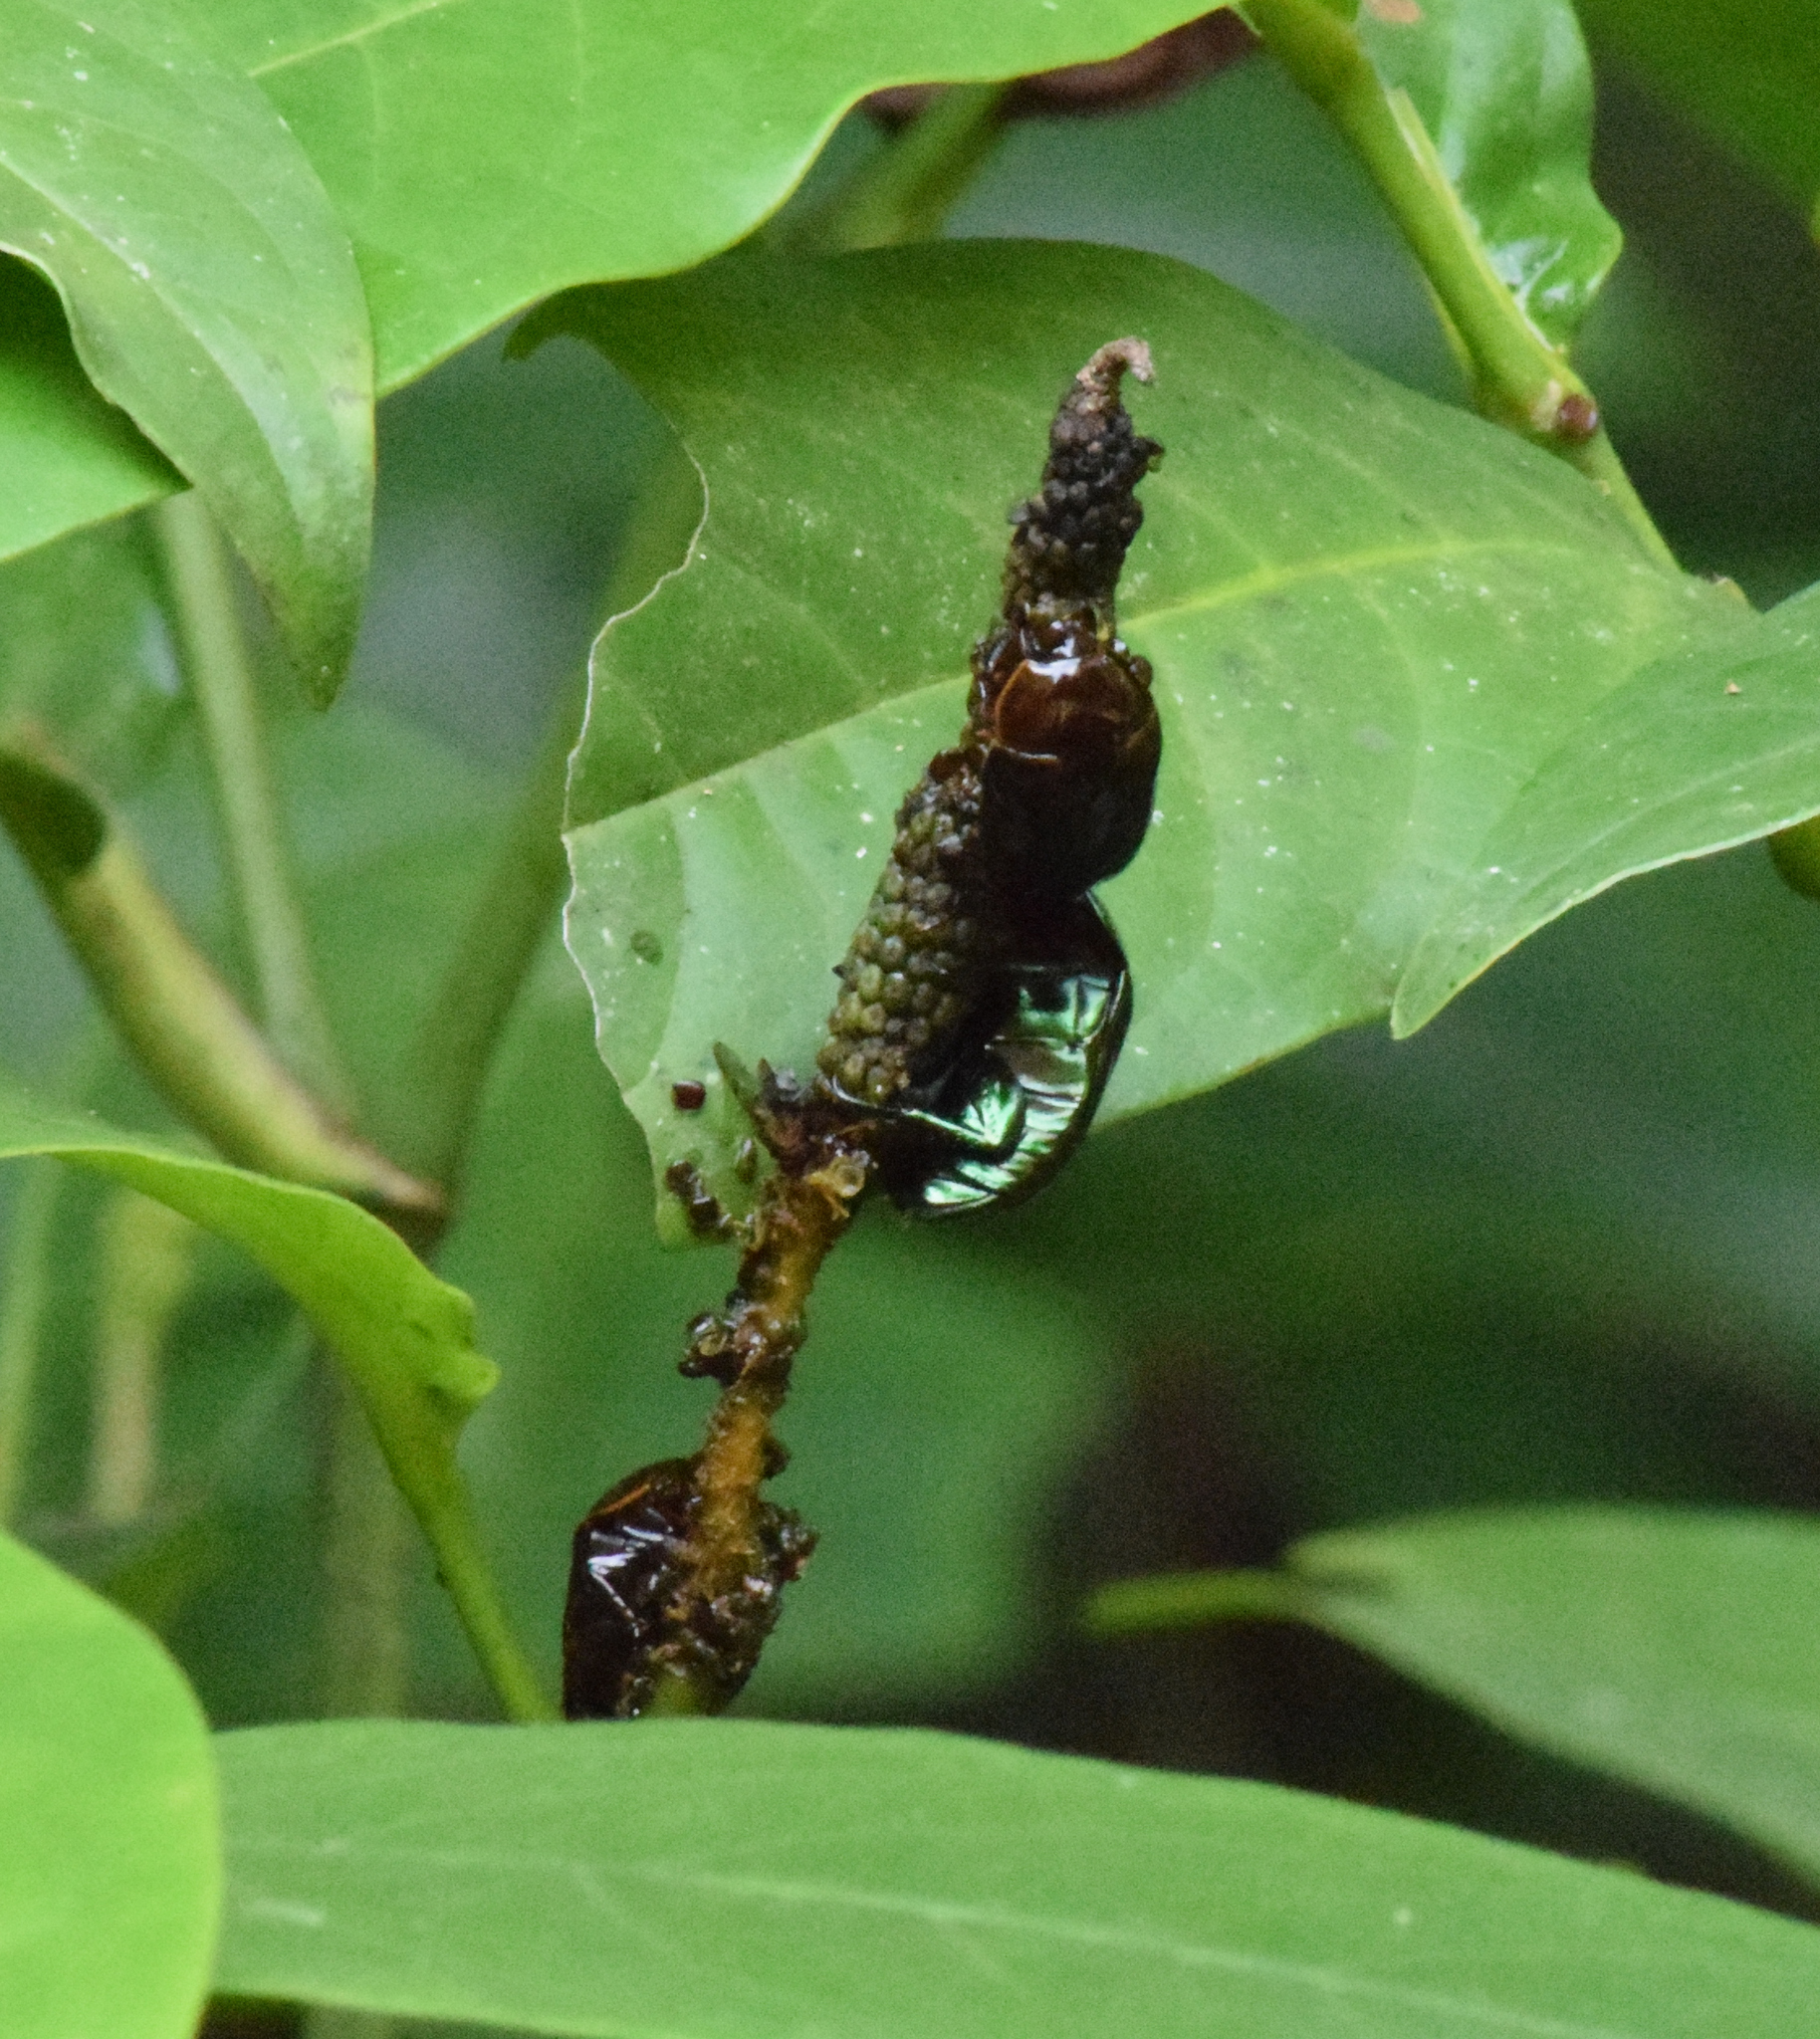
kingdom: Animalia
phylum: Arthropoda
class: Insecta
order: Coleoptera
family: Scarabaeidae
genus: Lagochile
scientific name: Lagochile emarginata
